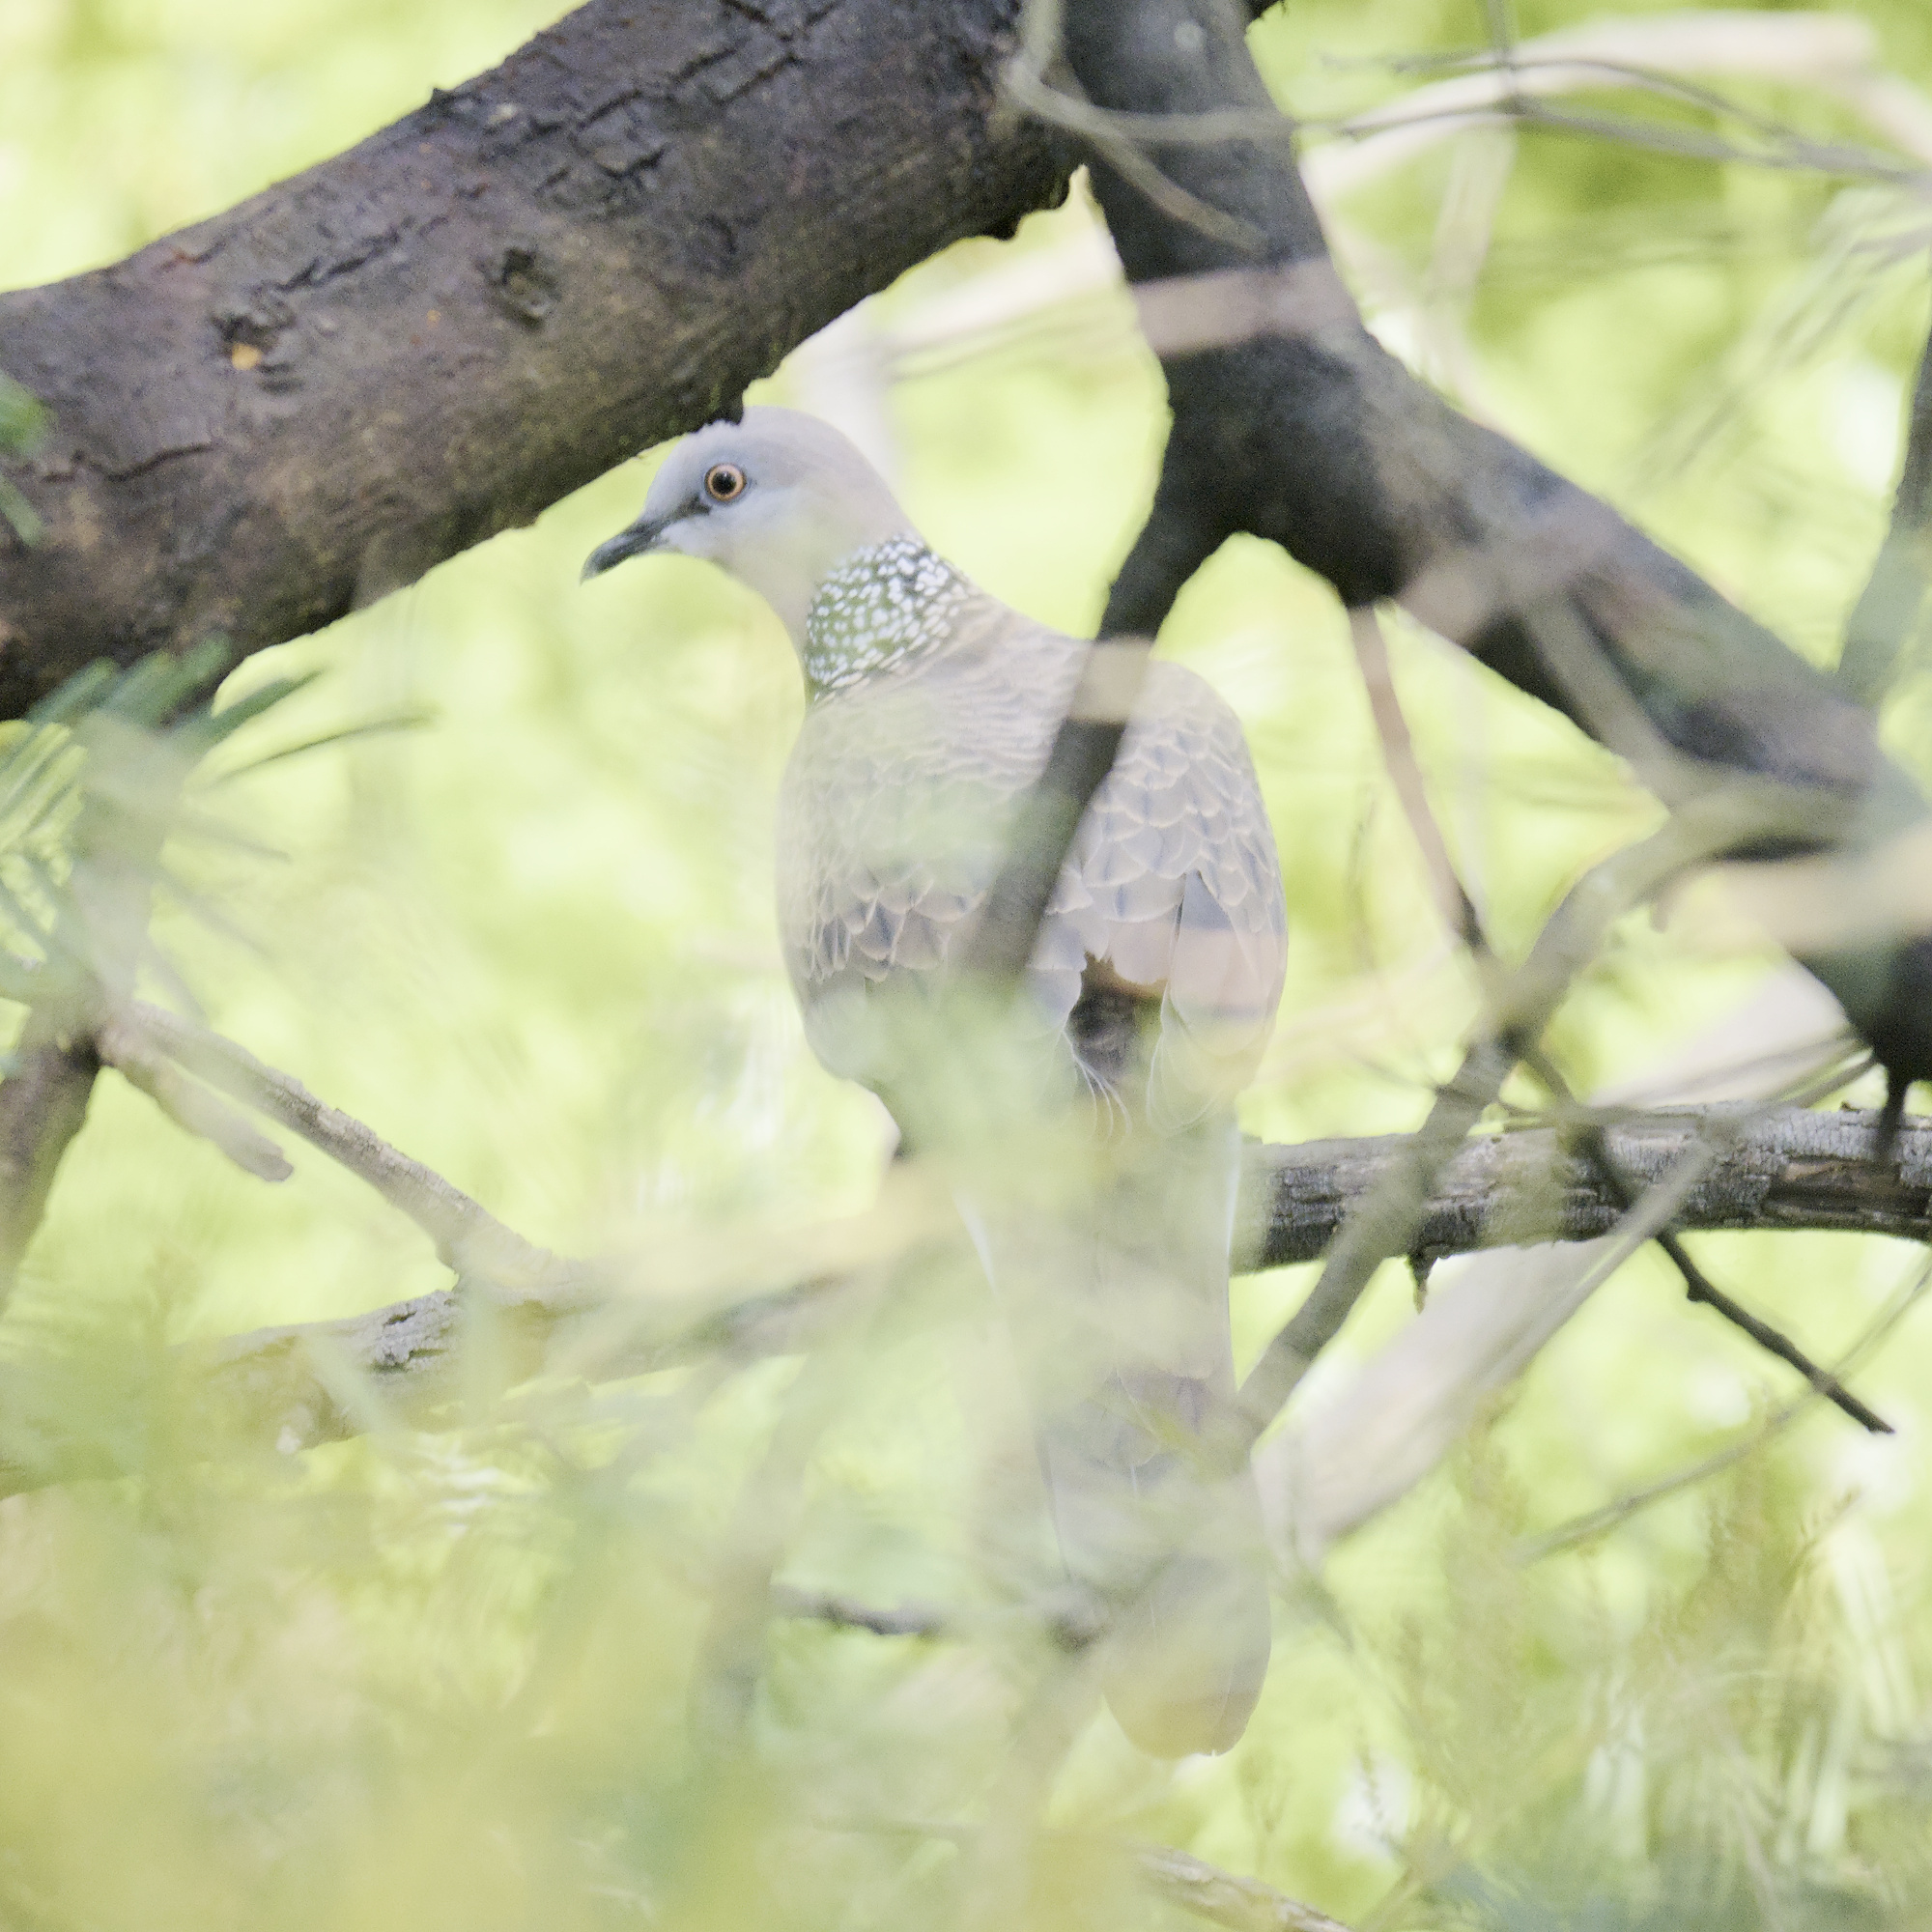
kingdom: Animalia
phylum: Chordata
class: Aves
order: Columbiformes
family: Columbidae
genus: Spilopelia
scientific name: Spilopelia chinensis
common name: Spotted dove
